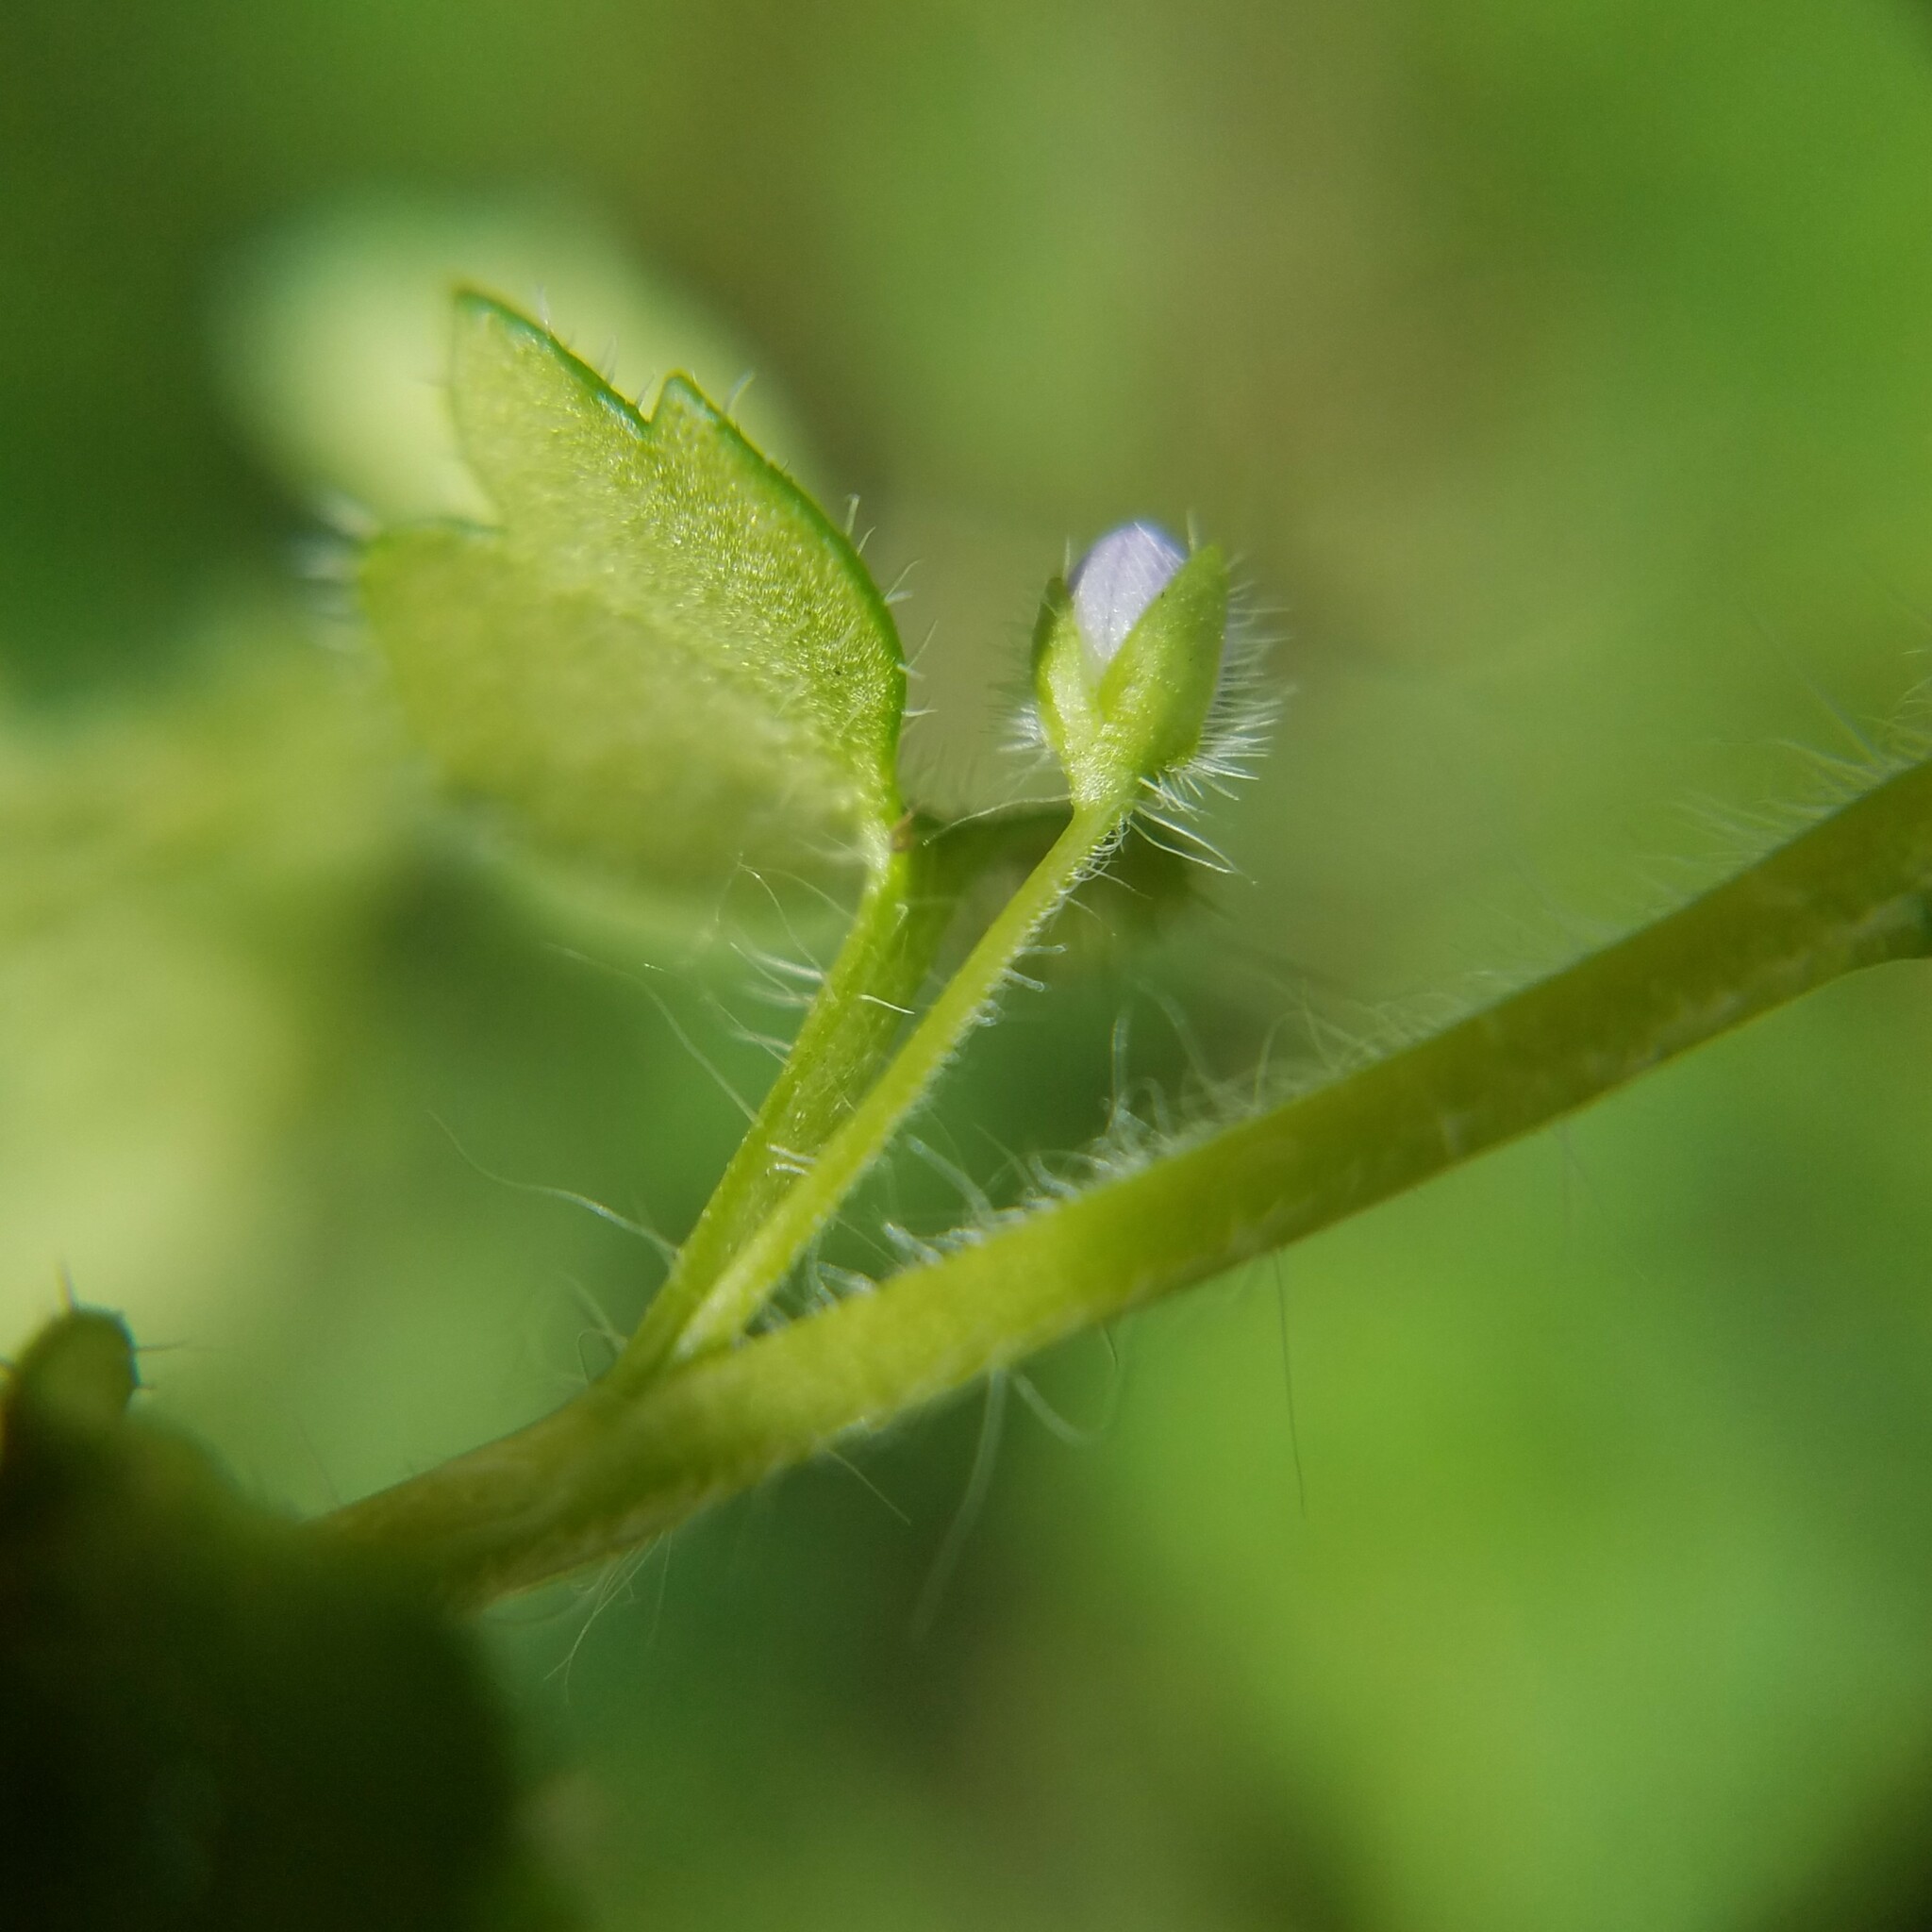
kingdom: Plantae
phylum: Tracheophyta
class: Magnoliopsida
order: Lamiales
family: Plantaginaceae
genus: Veronica
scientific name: Veronica hederifolia
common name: Ivy-leaved speedwell
